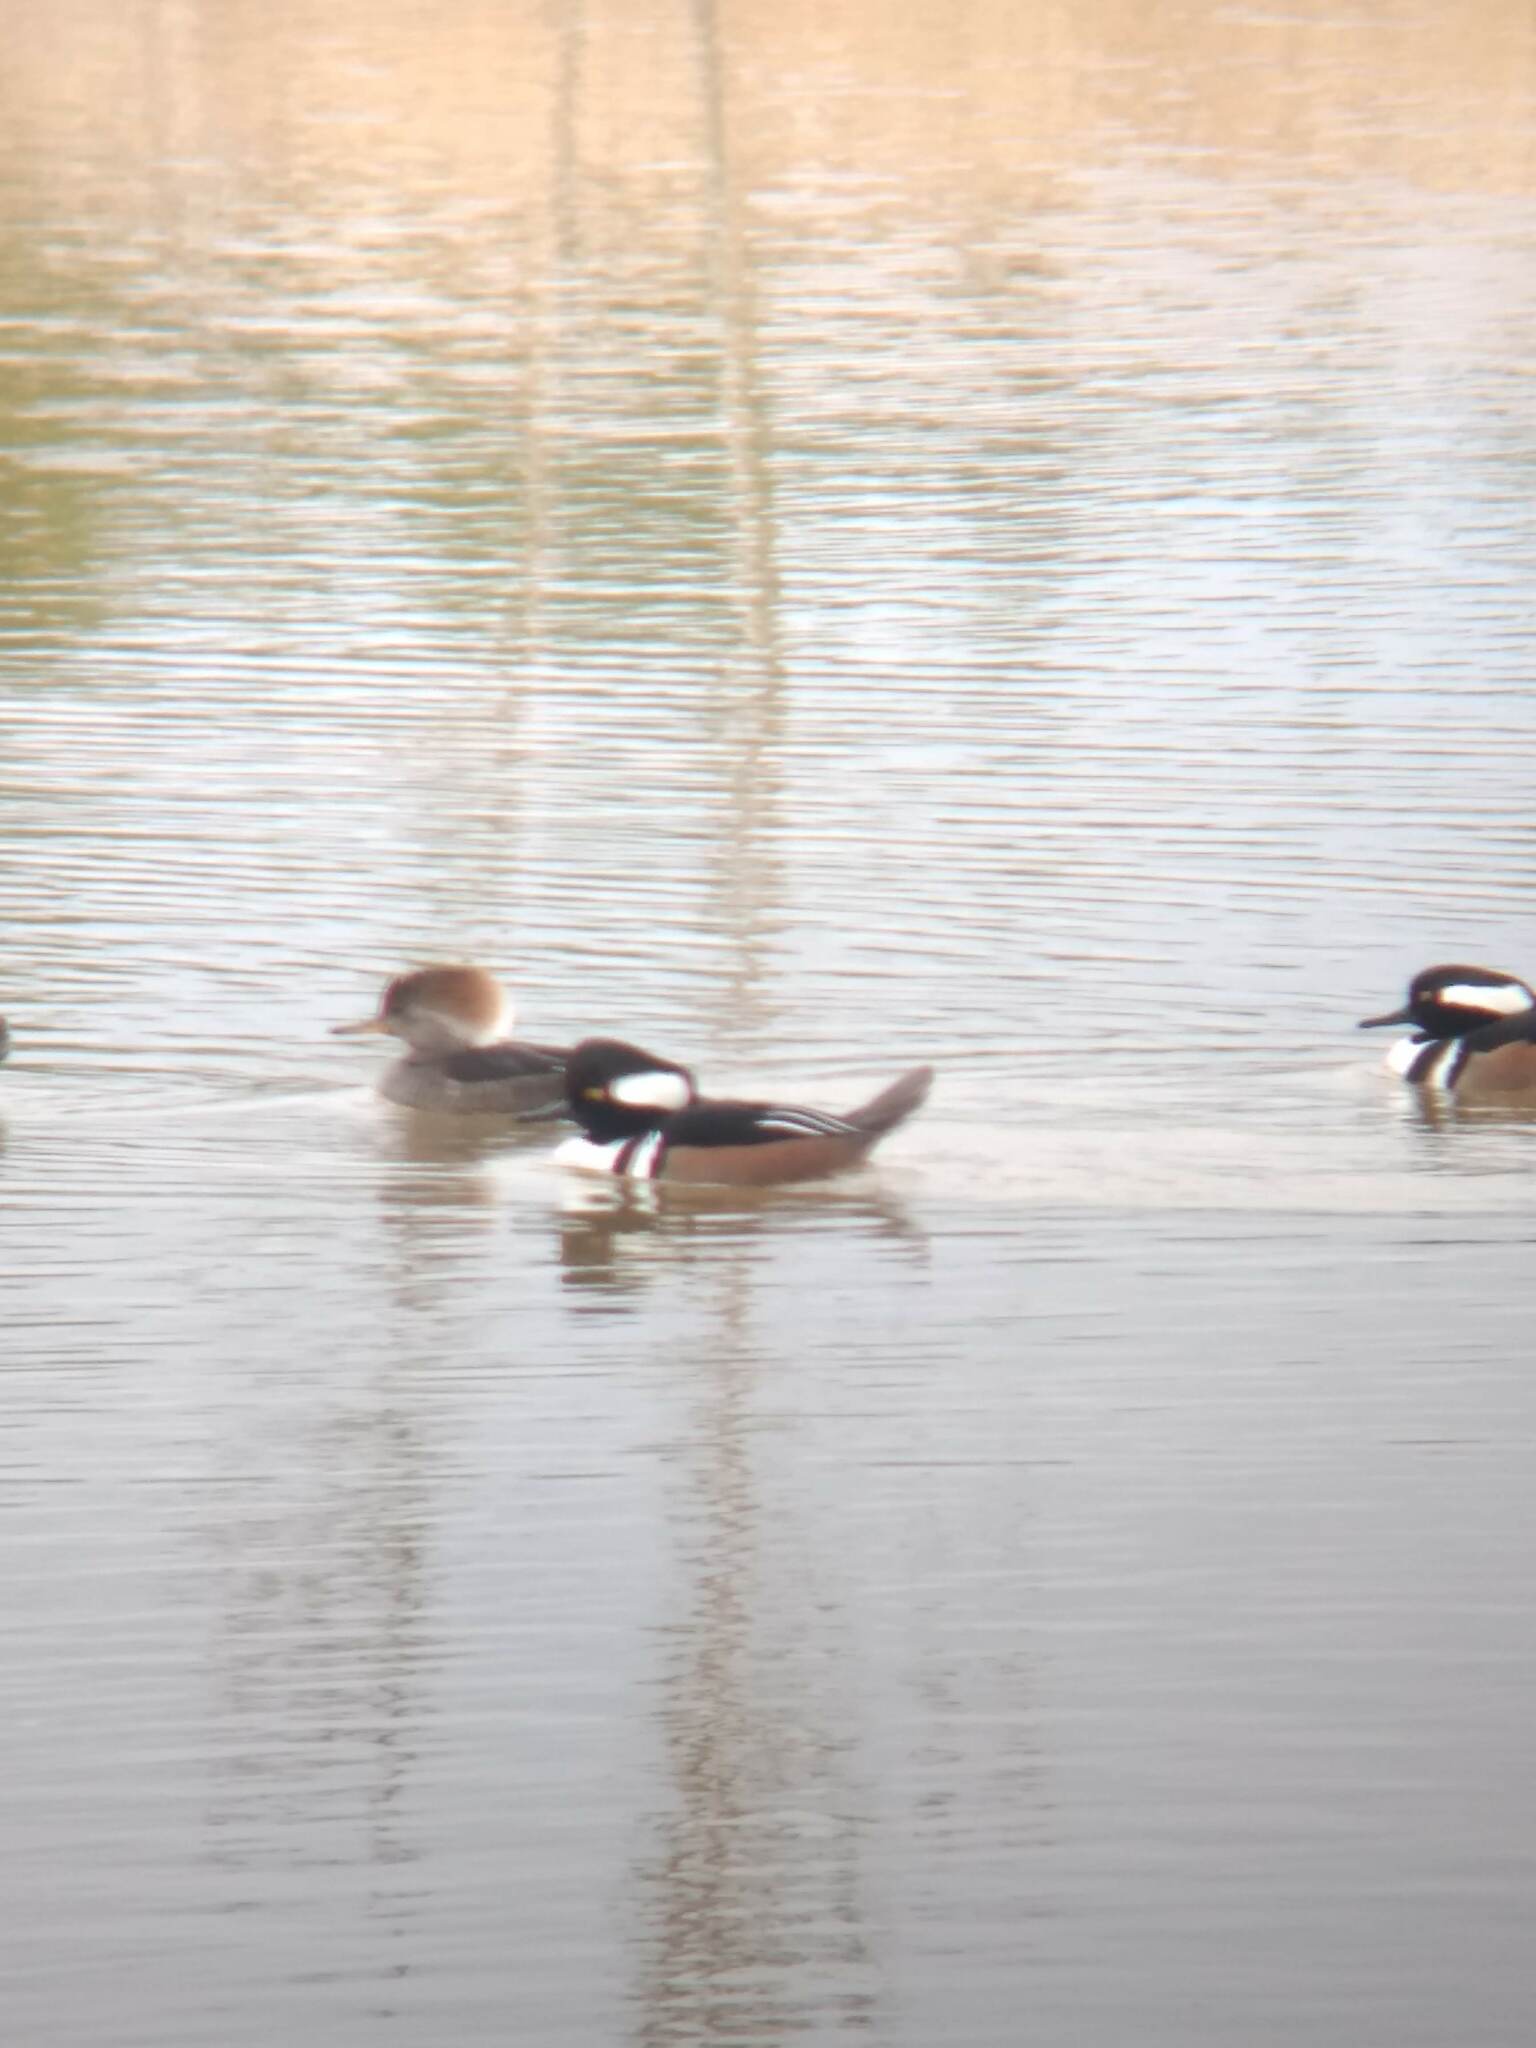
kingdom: Animalia
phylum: Chordata
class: Aves
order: Anseriformes
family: Anatidae
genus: Lophodytes
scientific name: Lophodytes cucullatus
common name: Hooded merganser
